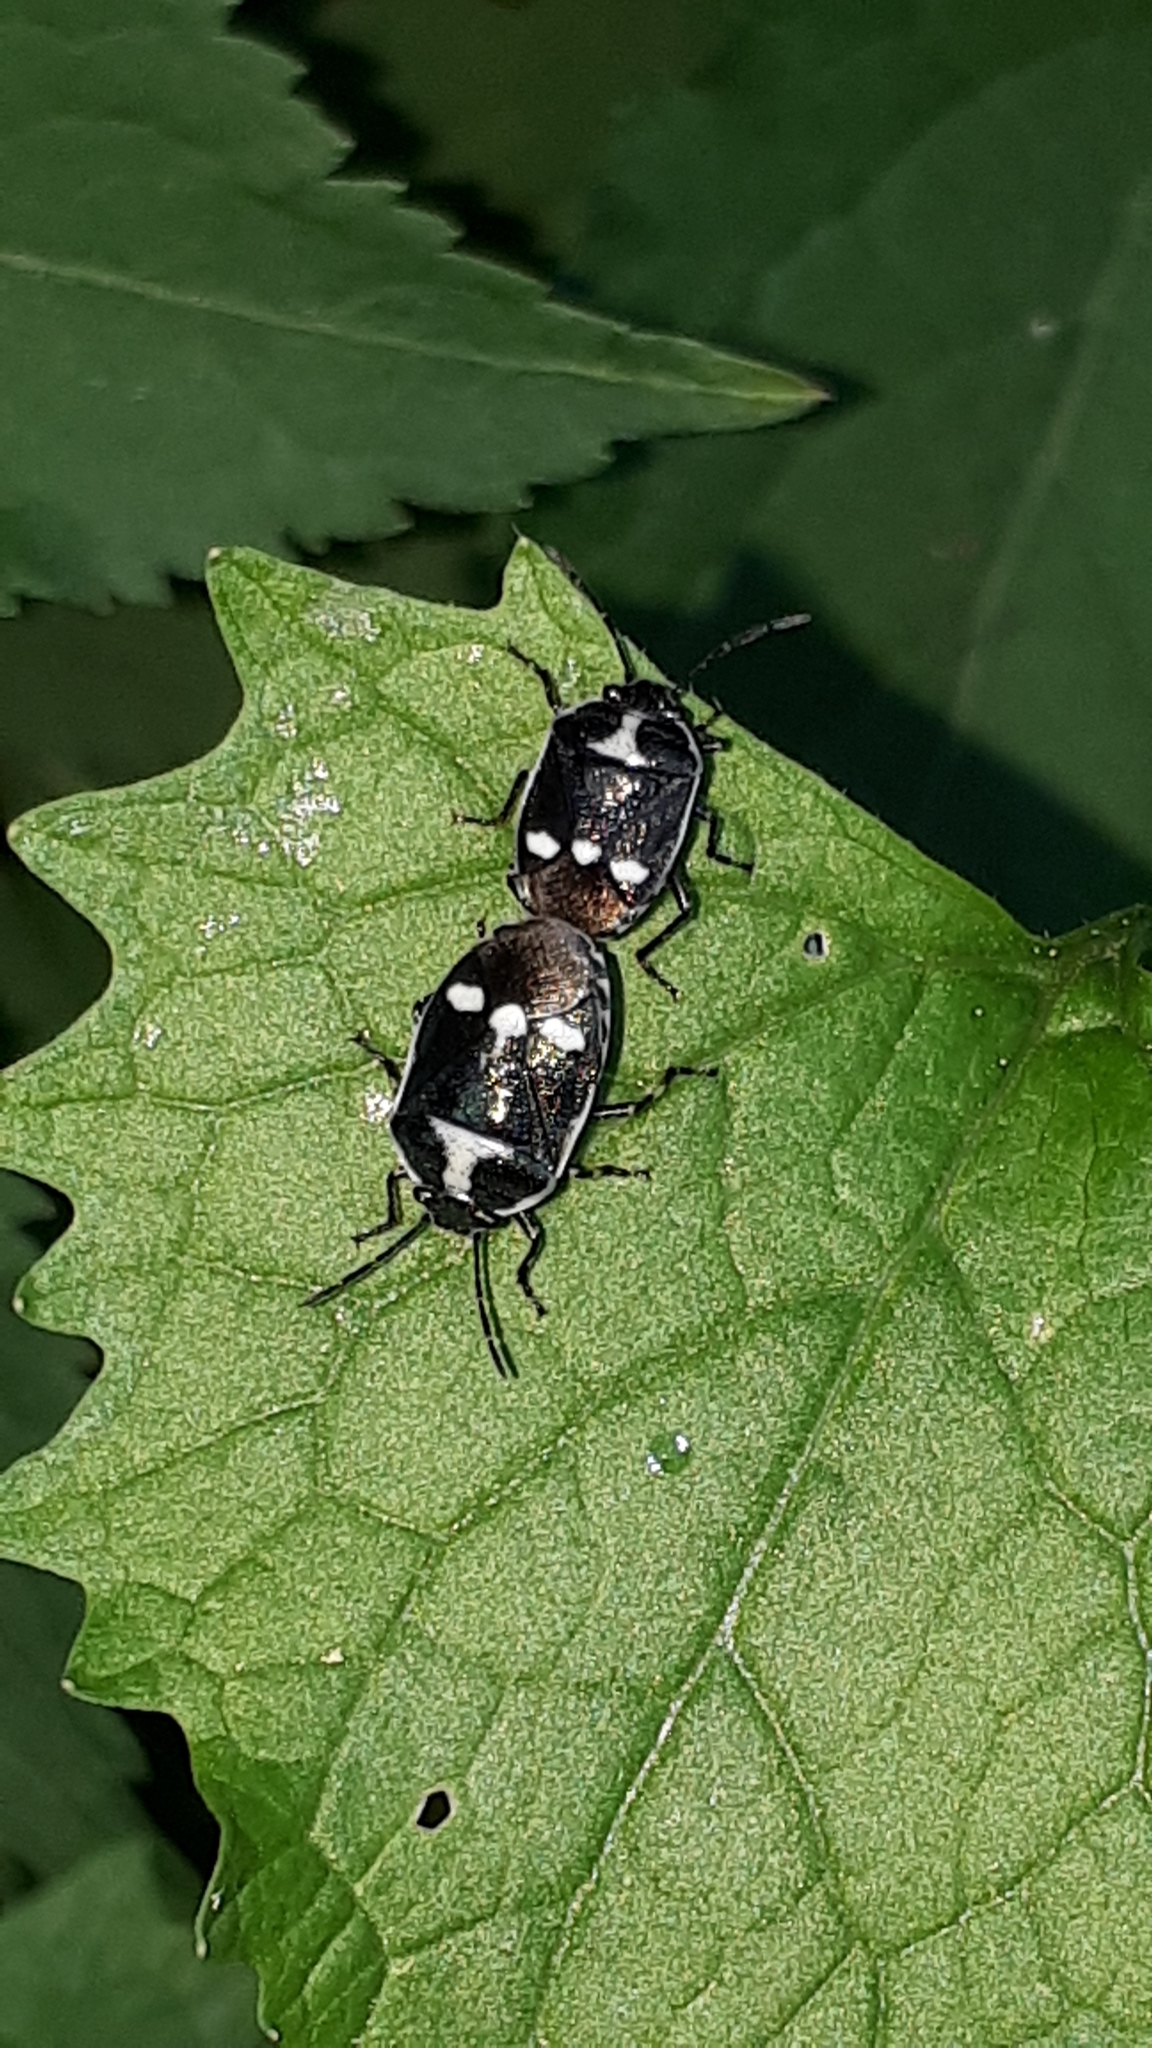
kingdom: Animalia
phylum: Arthropoda
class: Insecta
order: Hemiptera
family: Pentatomidae
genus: Eurydema
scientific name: Eurydema oleracea
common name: Cabbage bug
